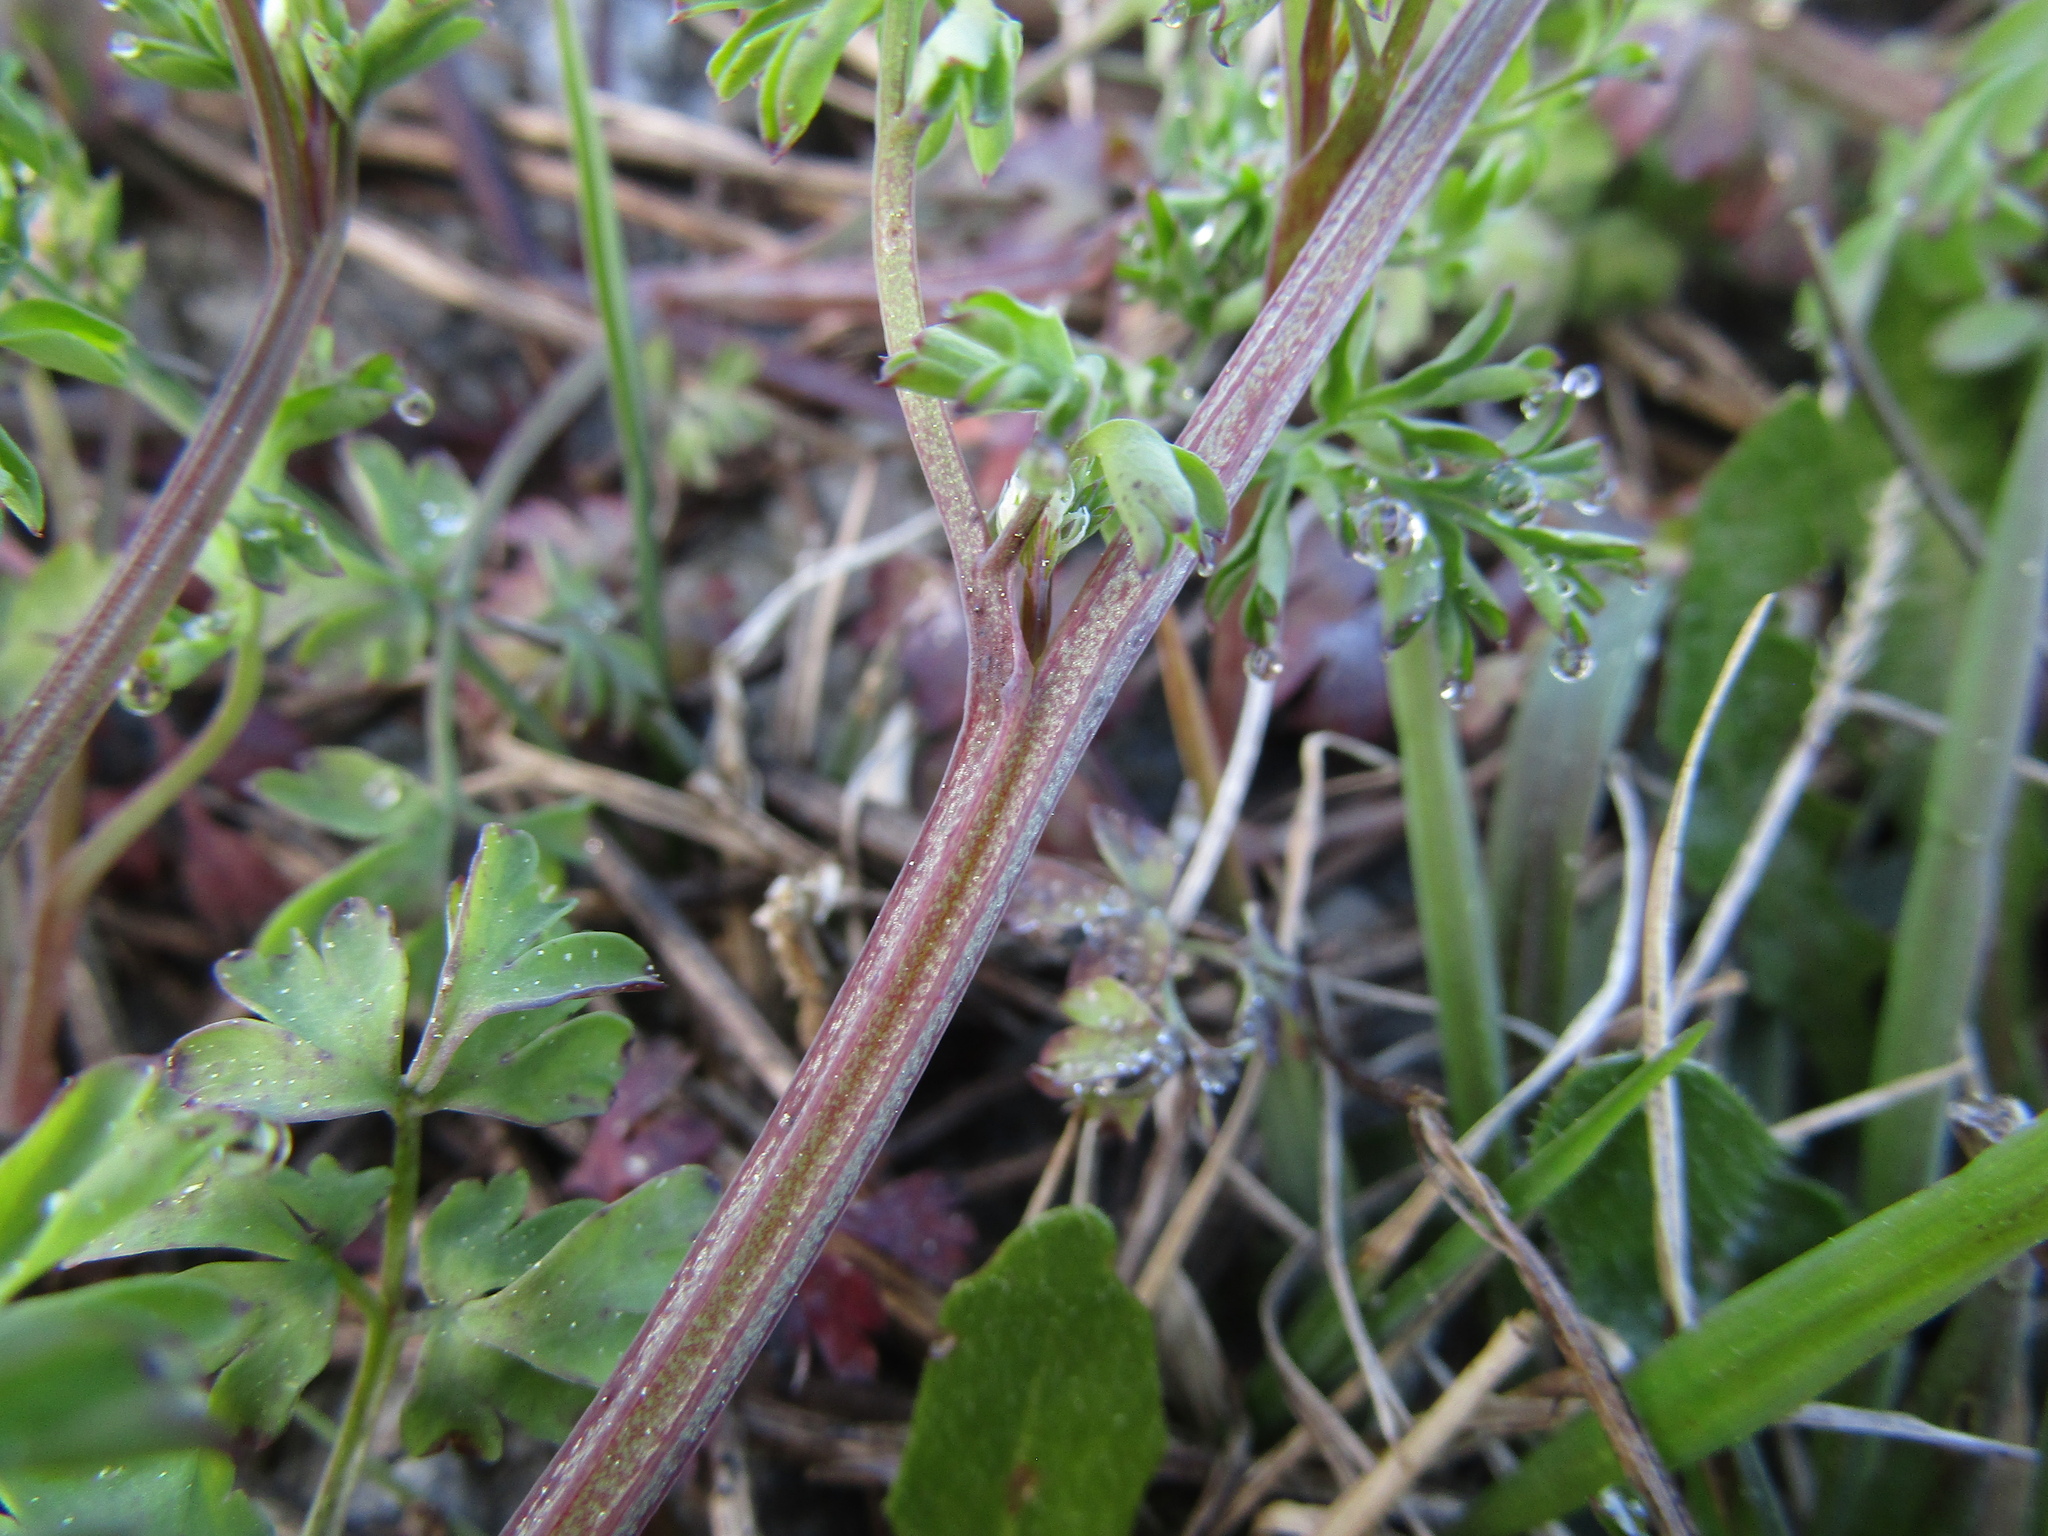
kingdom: Plantae
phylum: Tracheophyta
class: Magnoliopsida
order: Ranunculales
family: Papaveraceae
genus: Fumaria
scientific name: Fumaria capreolata
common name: White ramping-fumitory
